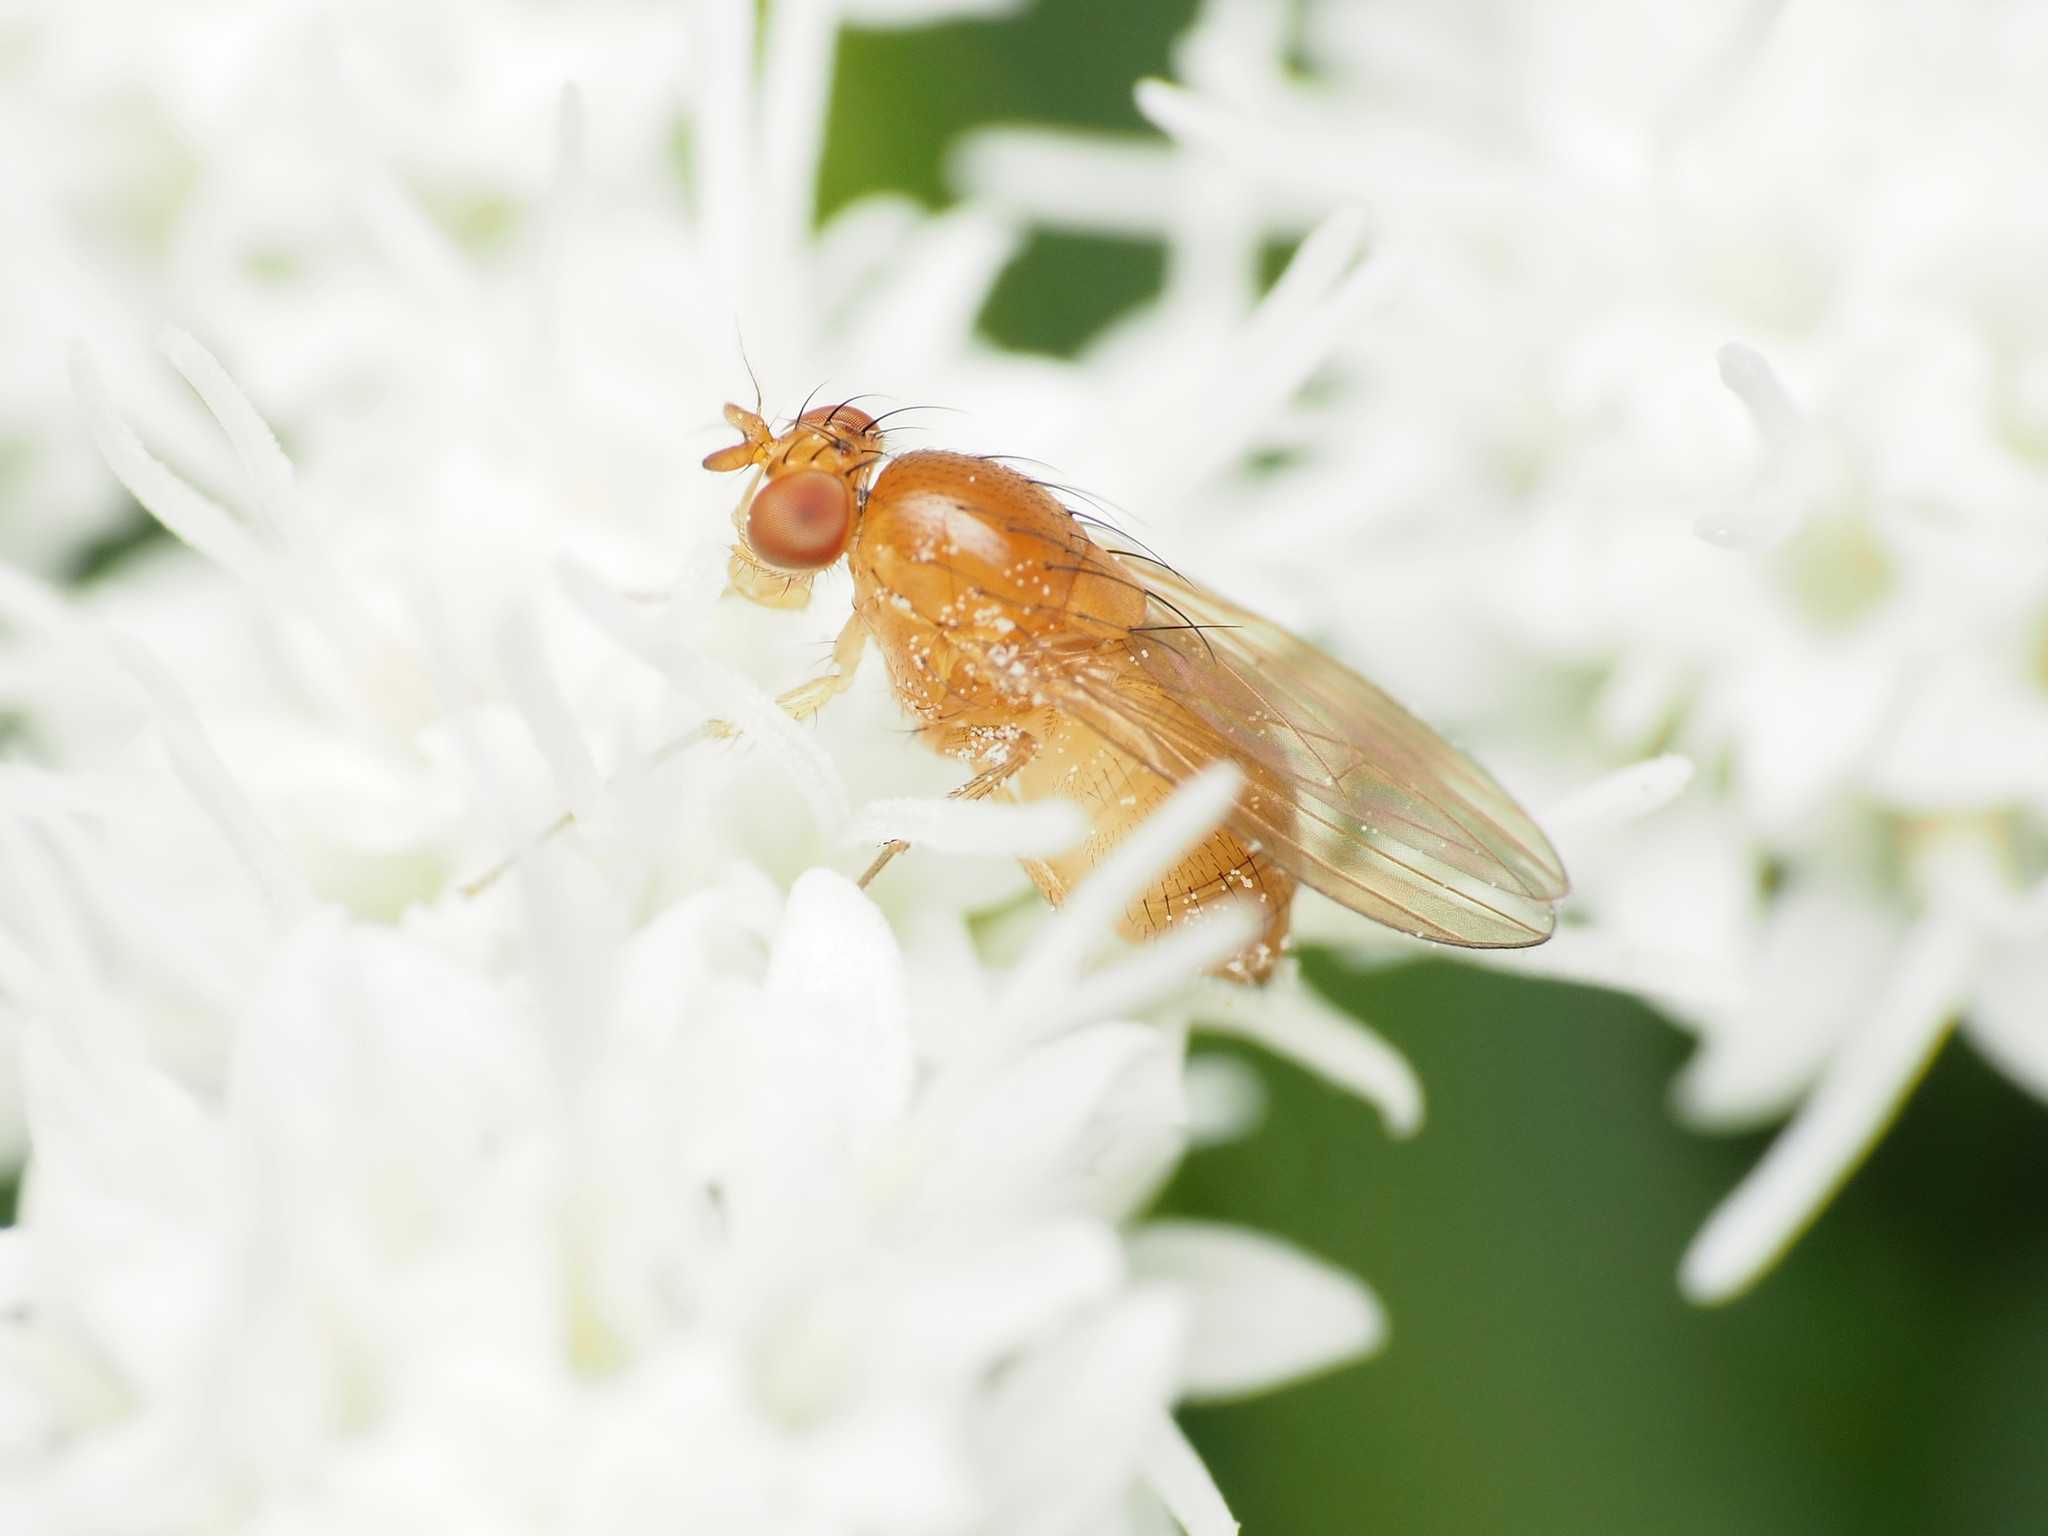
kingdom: Animalia
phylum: Arthropoda
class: Insecta
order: Diptera
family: Lauxaniidae
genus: Homoneura
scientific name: Homoneura unguiculata
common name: Beach fly
